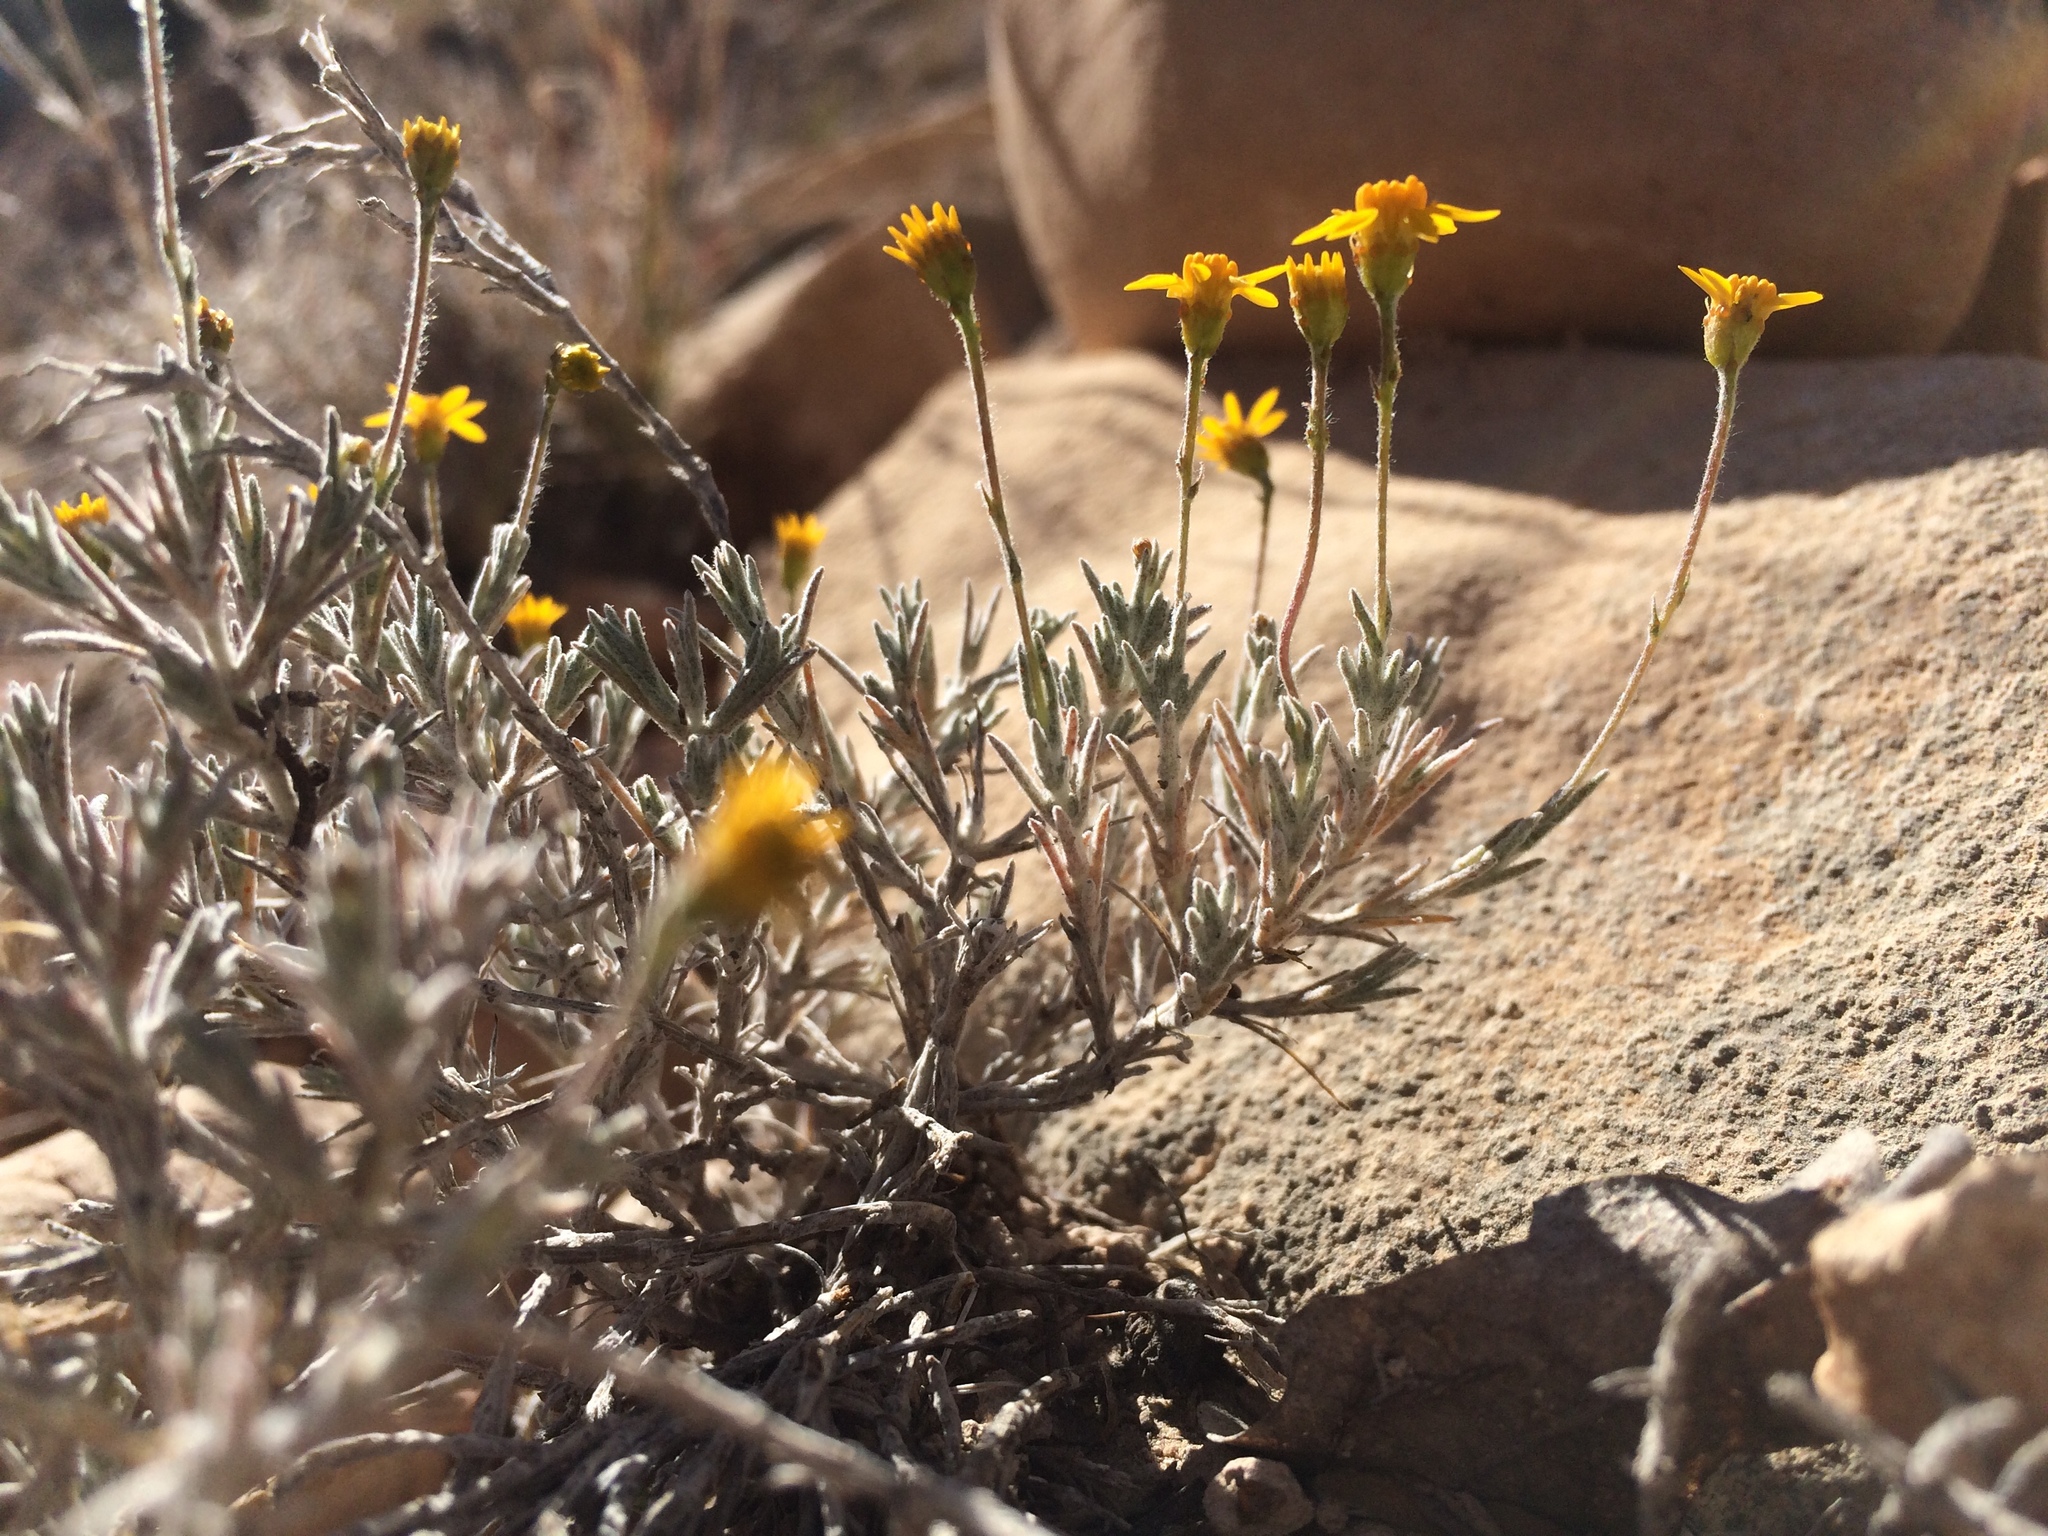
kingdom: Plantae
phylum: Tracheophyta
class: Magnoliopsida
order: Asterales
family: Asteraceae
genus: Thymophylla
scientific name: Thymophylla setifolia
